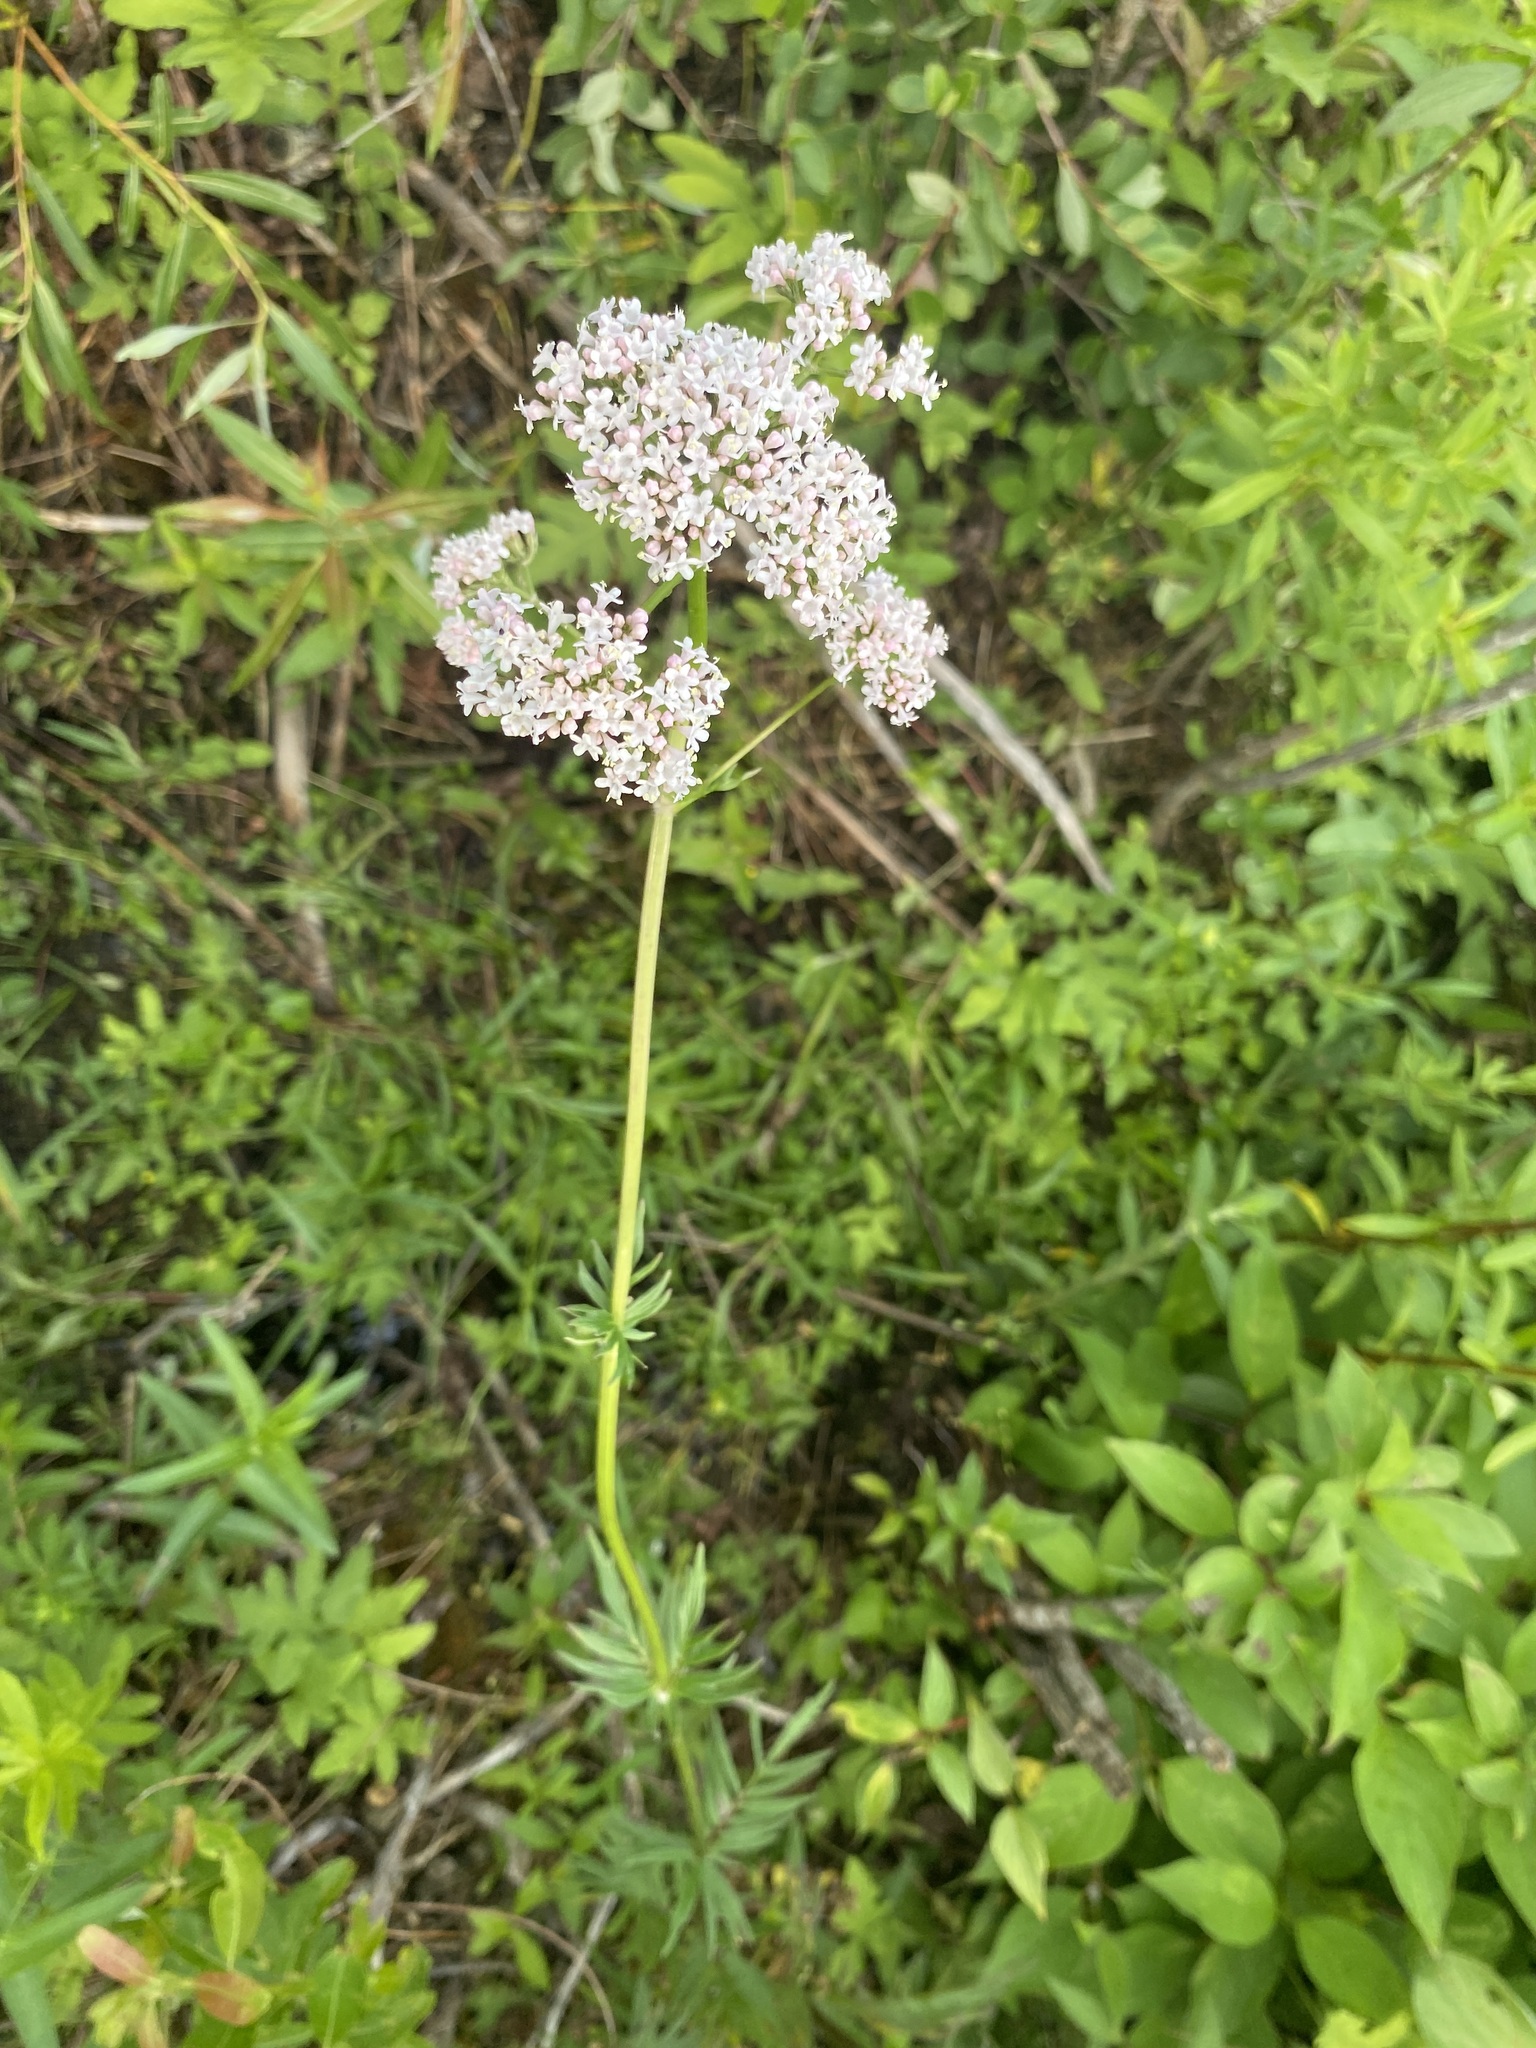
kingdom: Plantae
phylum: Tracheophyta
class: Magnoliopsida
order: Dipsacales
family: Caprifoliaceae
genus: Valeriana
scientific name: Valeriana officinalis
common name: Common valerian
